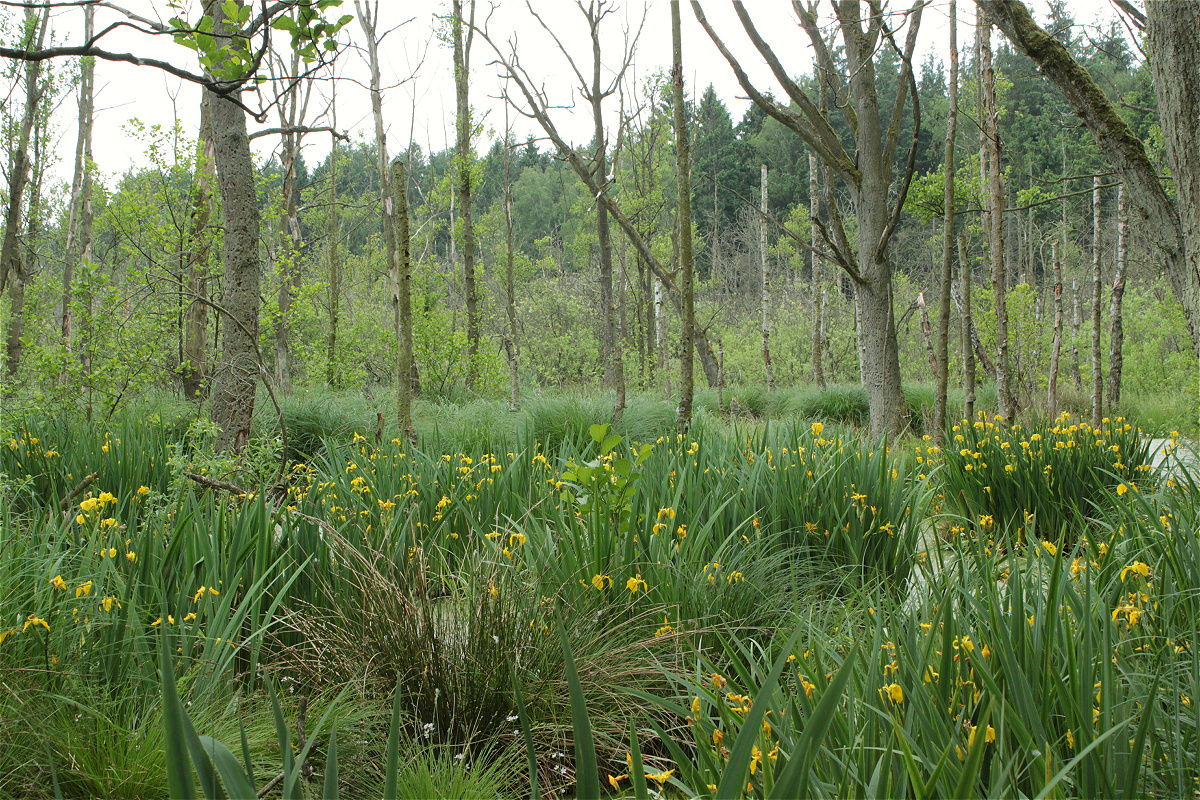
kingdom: Plantae
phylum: Tracheophyta
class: Liliopsida
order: Asparagales
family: Iridaceae
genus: Iris
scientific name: Iris pseudacorus
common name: Yellow flag
